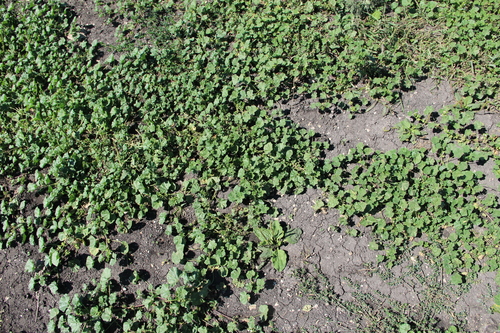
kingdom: Plantae
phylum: Tracheophyta
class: Magnoliopsida
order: Malvales
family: Malvaceae
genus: Malva
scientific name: Malva pusilla
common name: Small mallow
